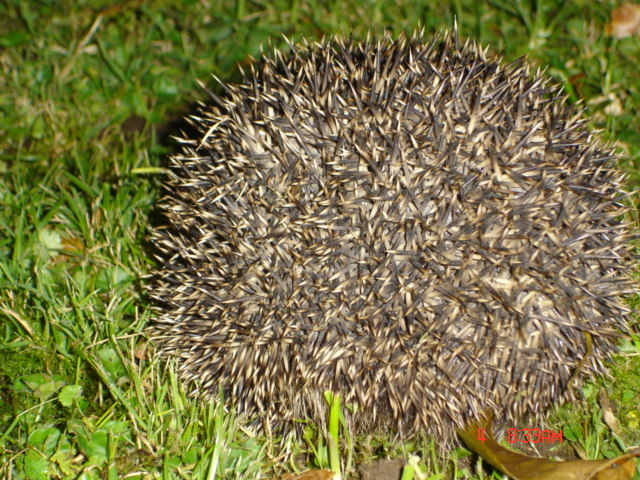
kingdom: Animalia
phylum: Chordata
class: Mammalia
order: Erinaceomorpha
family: Erinaceidae
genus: Erinaceus
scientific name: Erinaceus europaeus
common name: West european hedgehog
